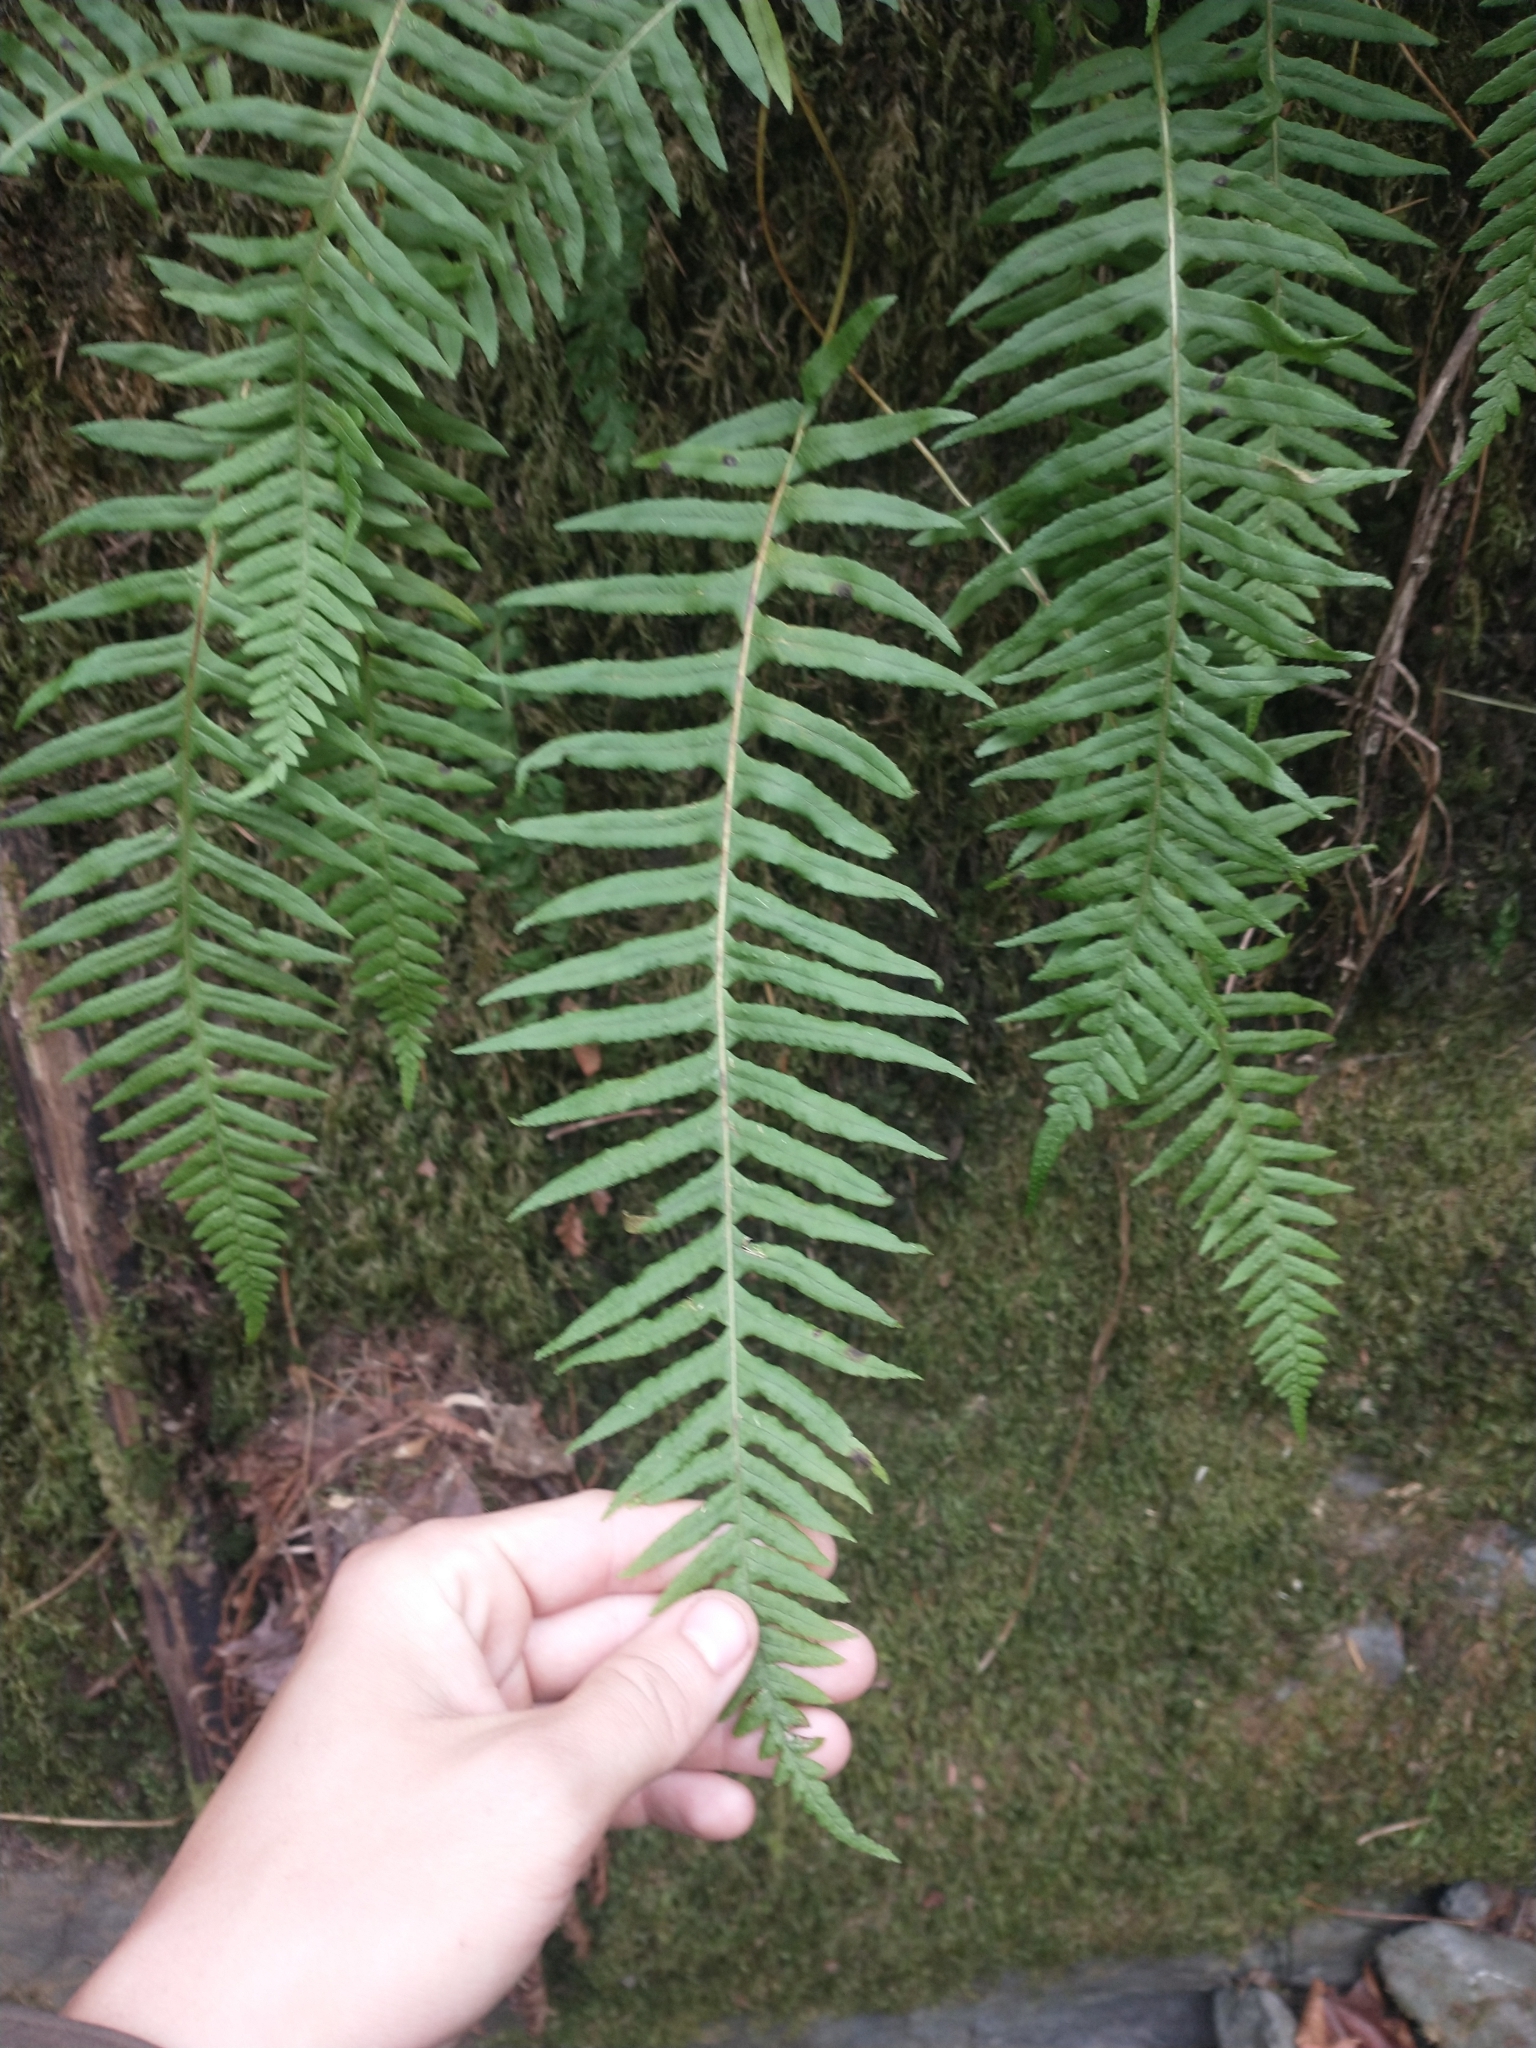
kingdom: Plantae
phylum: Tracheophyta
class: Polypodiopsida
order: Polypodiales
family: Polypodiaceae
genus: Polypodium
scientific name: Polypodium glycyrrhiza
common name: Licorice fern
